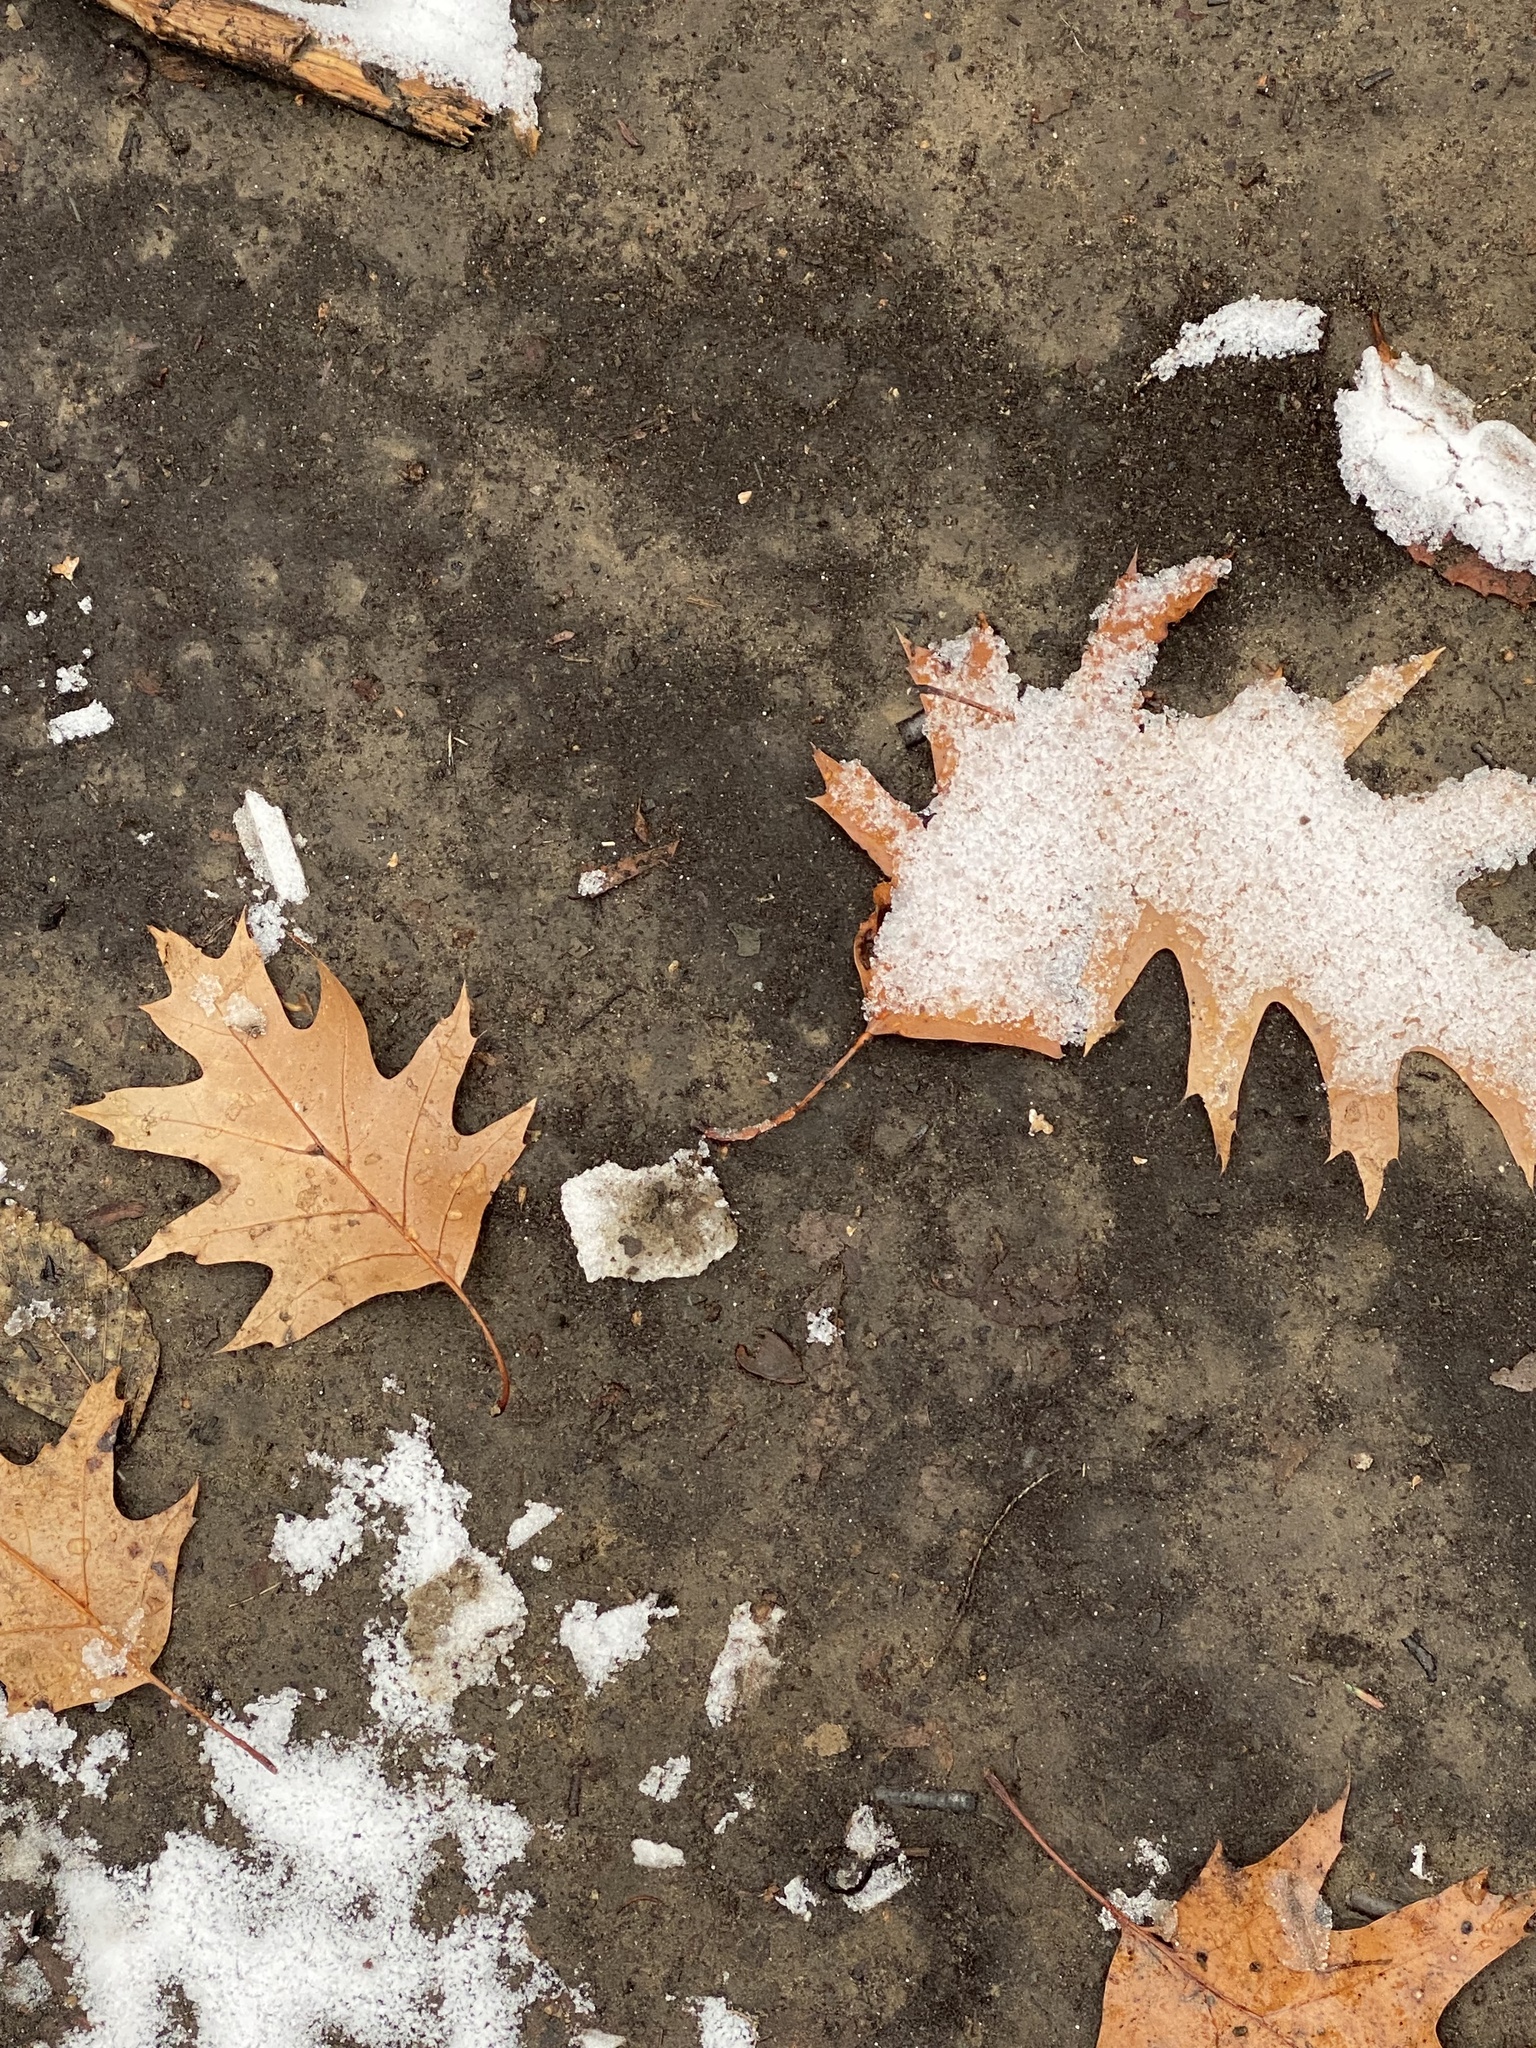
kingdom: Plantae
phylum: Tracheophyta
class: Magnoliopsida
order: Fagales
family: Fagaceae
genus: Quercus
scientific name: Quercus rubra
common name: Red oak
